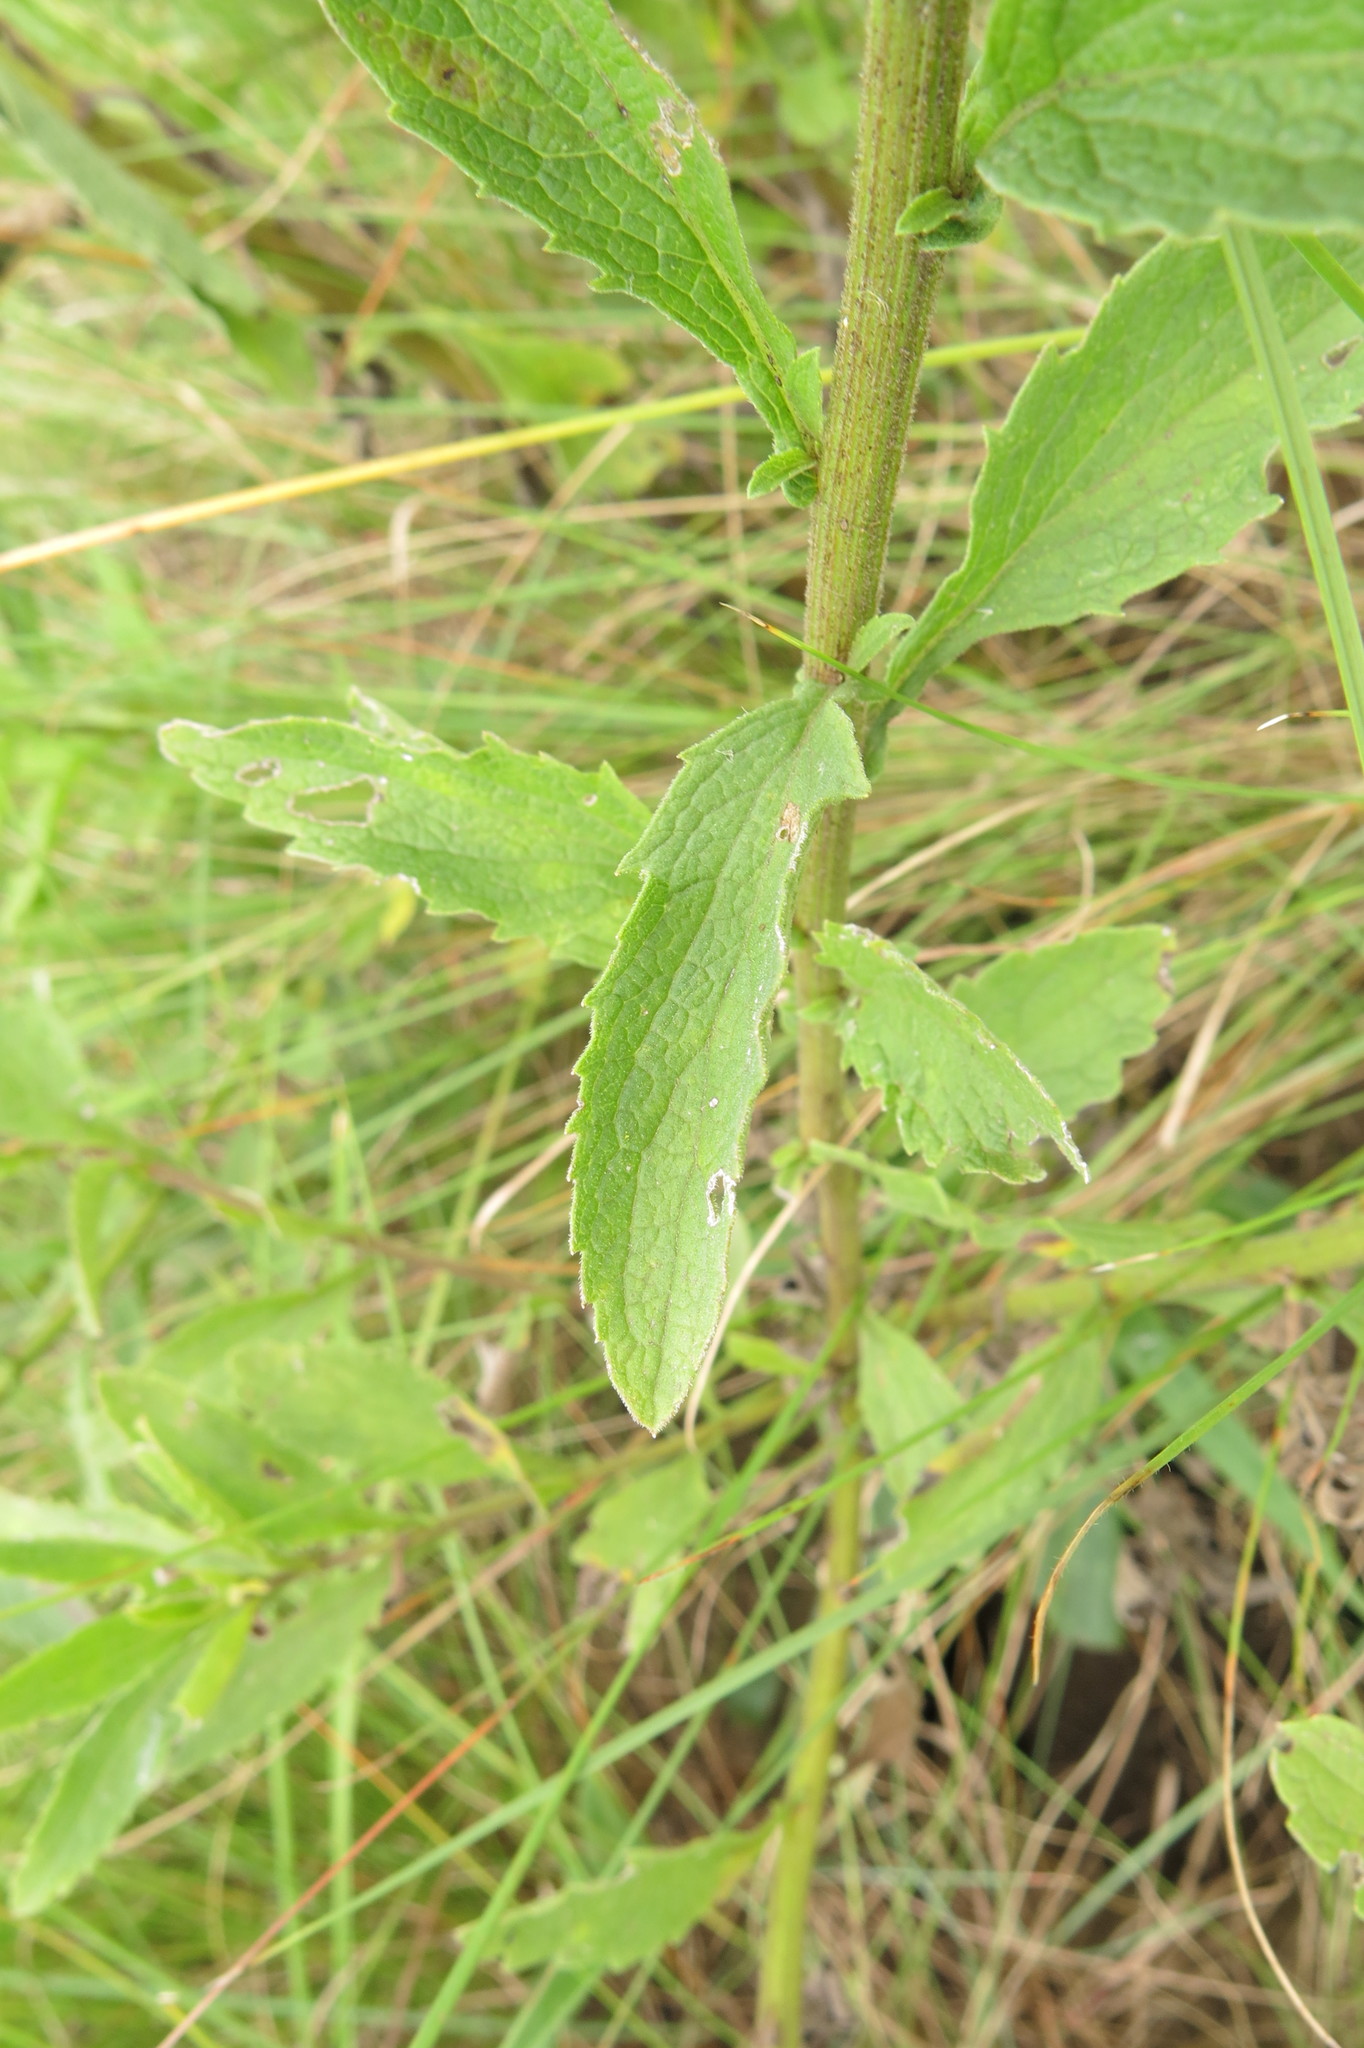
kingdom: Plantae
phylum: Tracheophyta
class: Magnoliopsida
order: Asterales
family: Asteraceae
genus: Nidorella
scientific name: Nidorella auriculata
